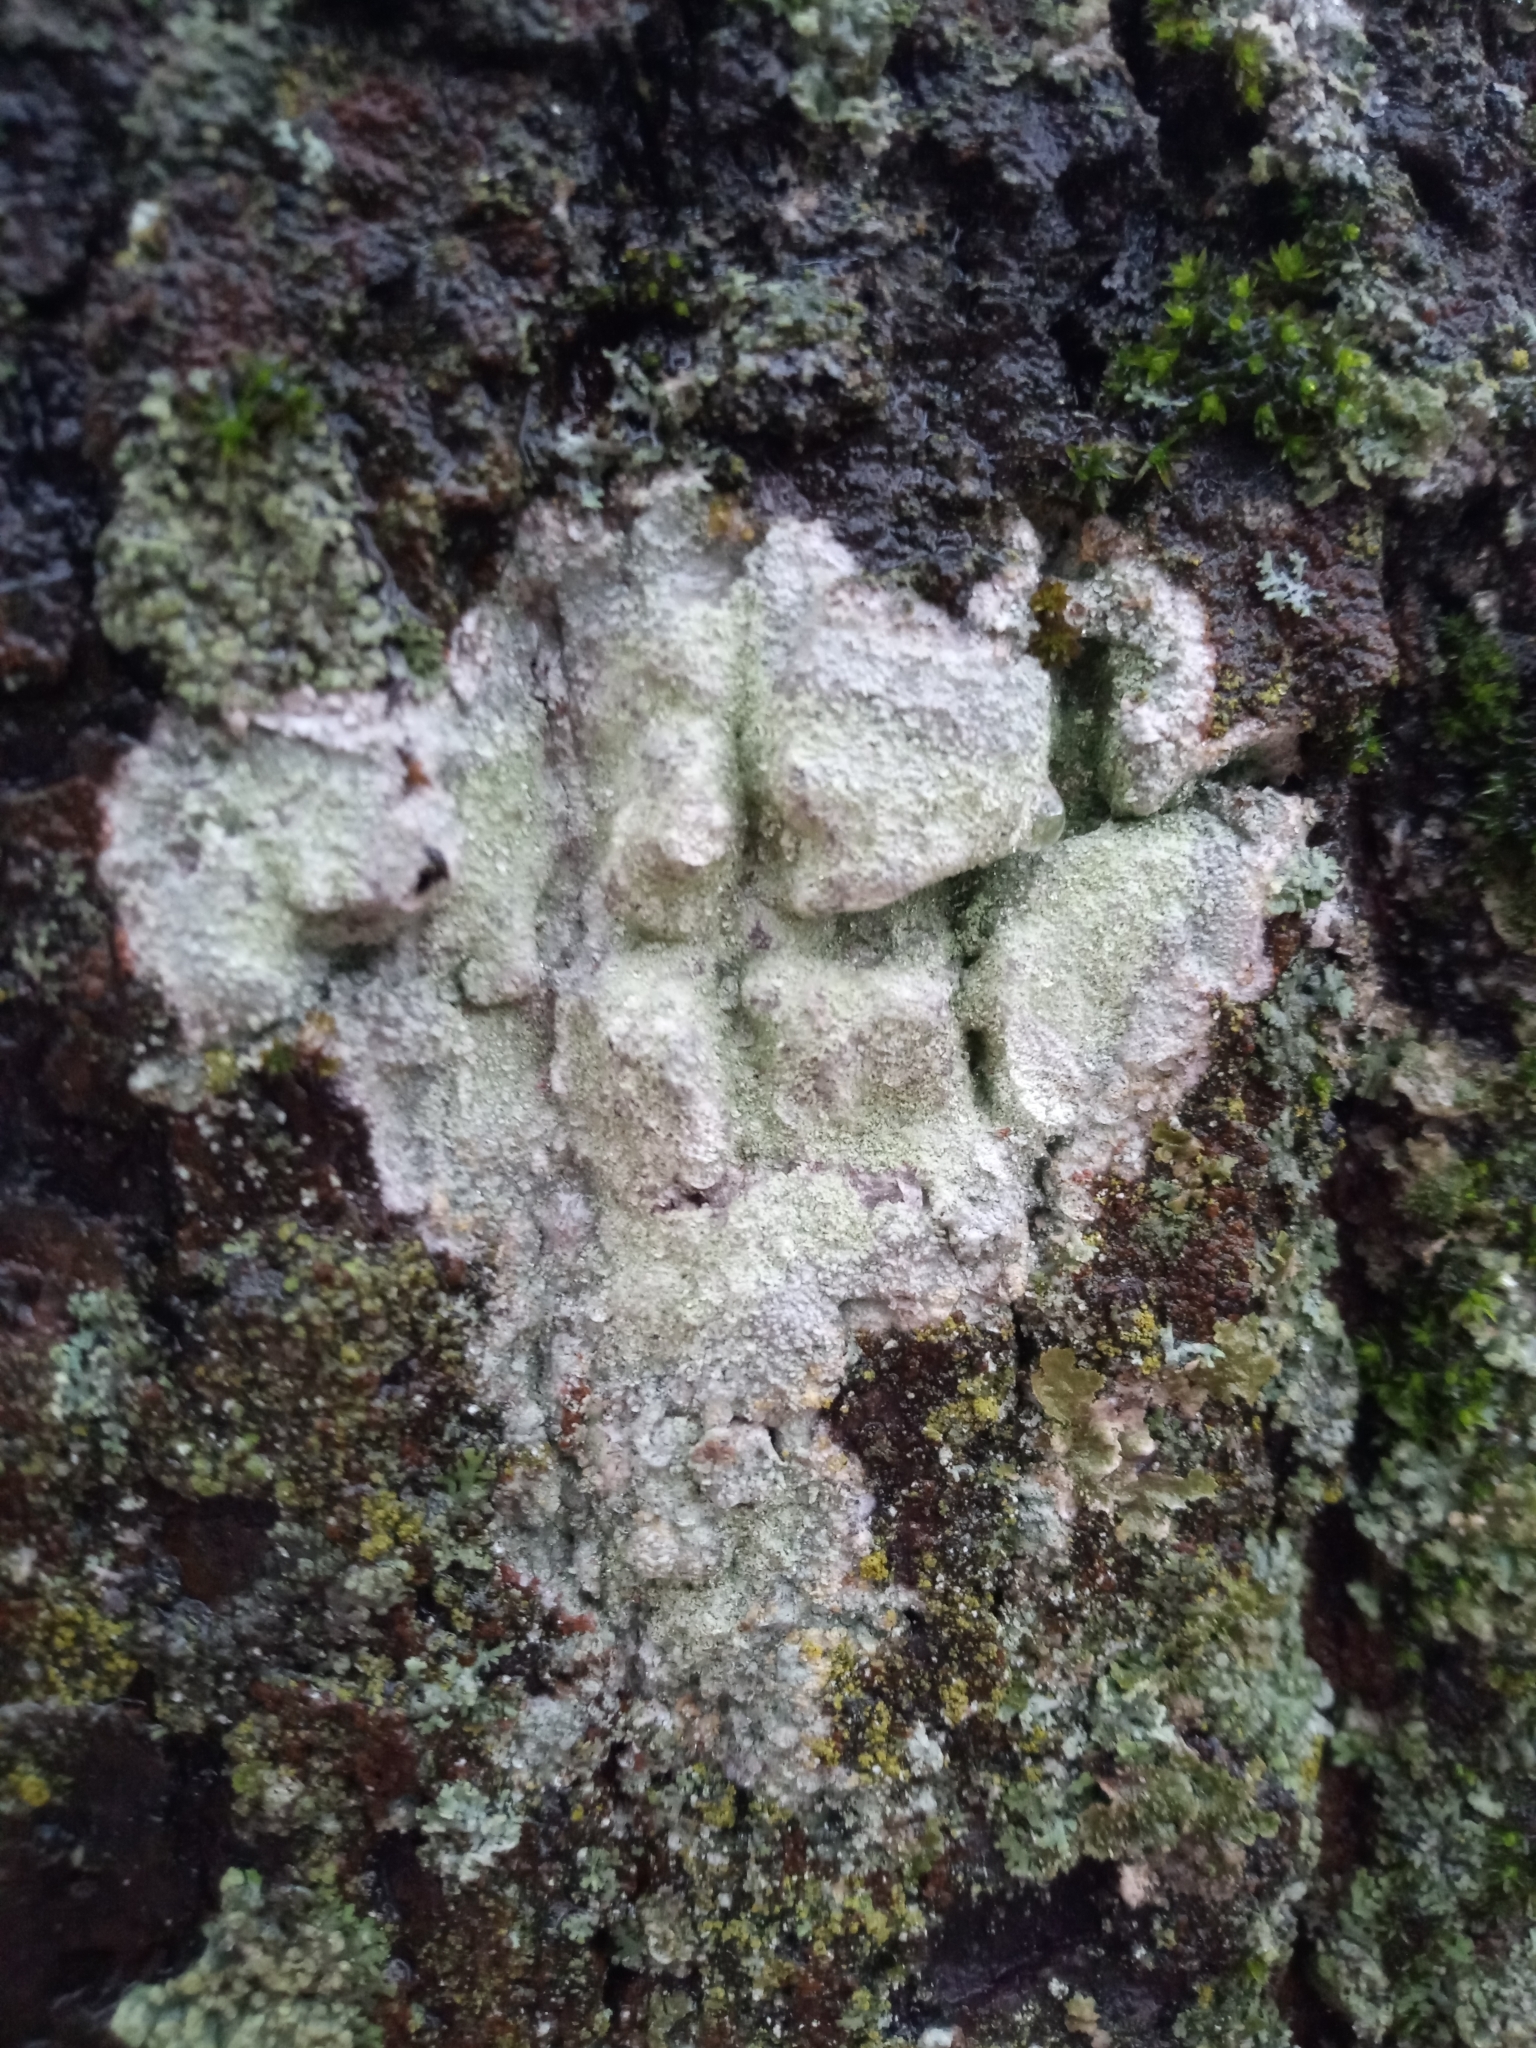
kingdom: Fungi
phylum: Ascomycota
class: Lecanoromycetes
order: Ostropales
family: Phlyctidaceae
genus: Phlyctis
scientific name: Phlyctis argena
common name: Whitewash lichen
